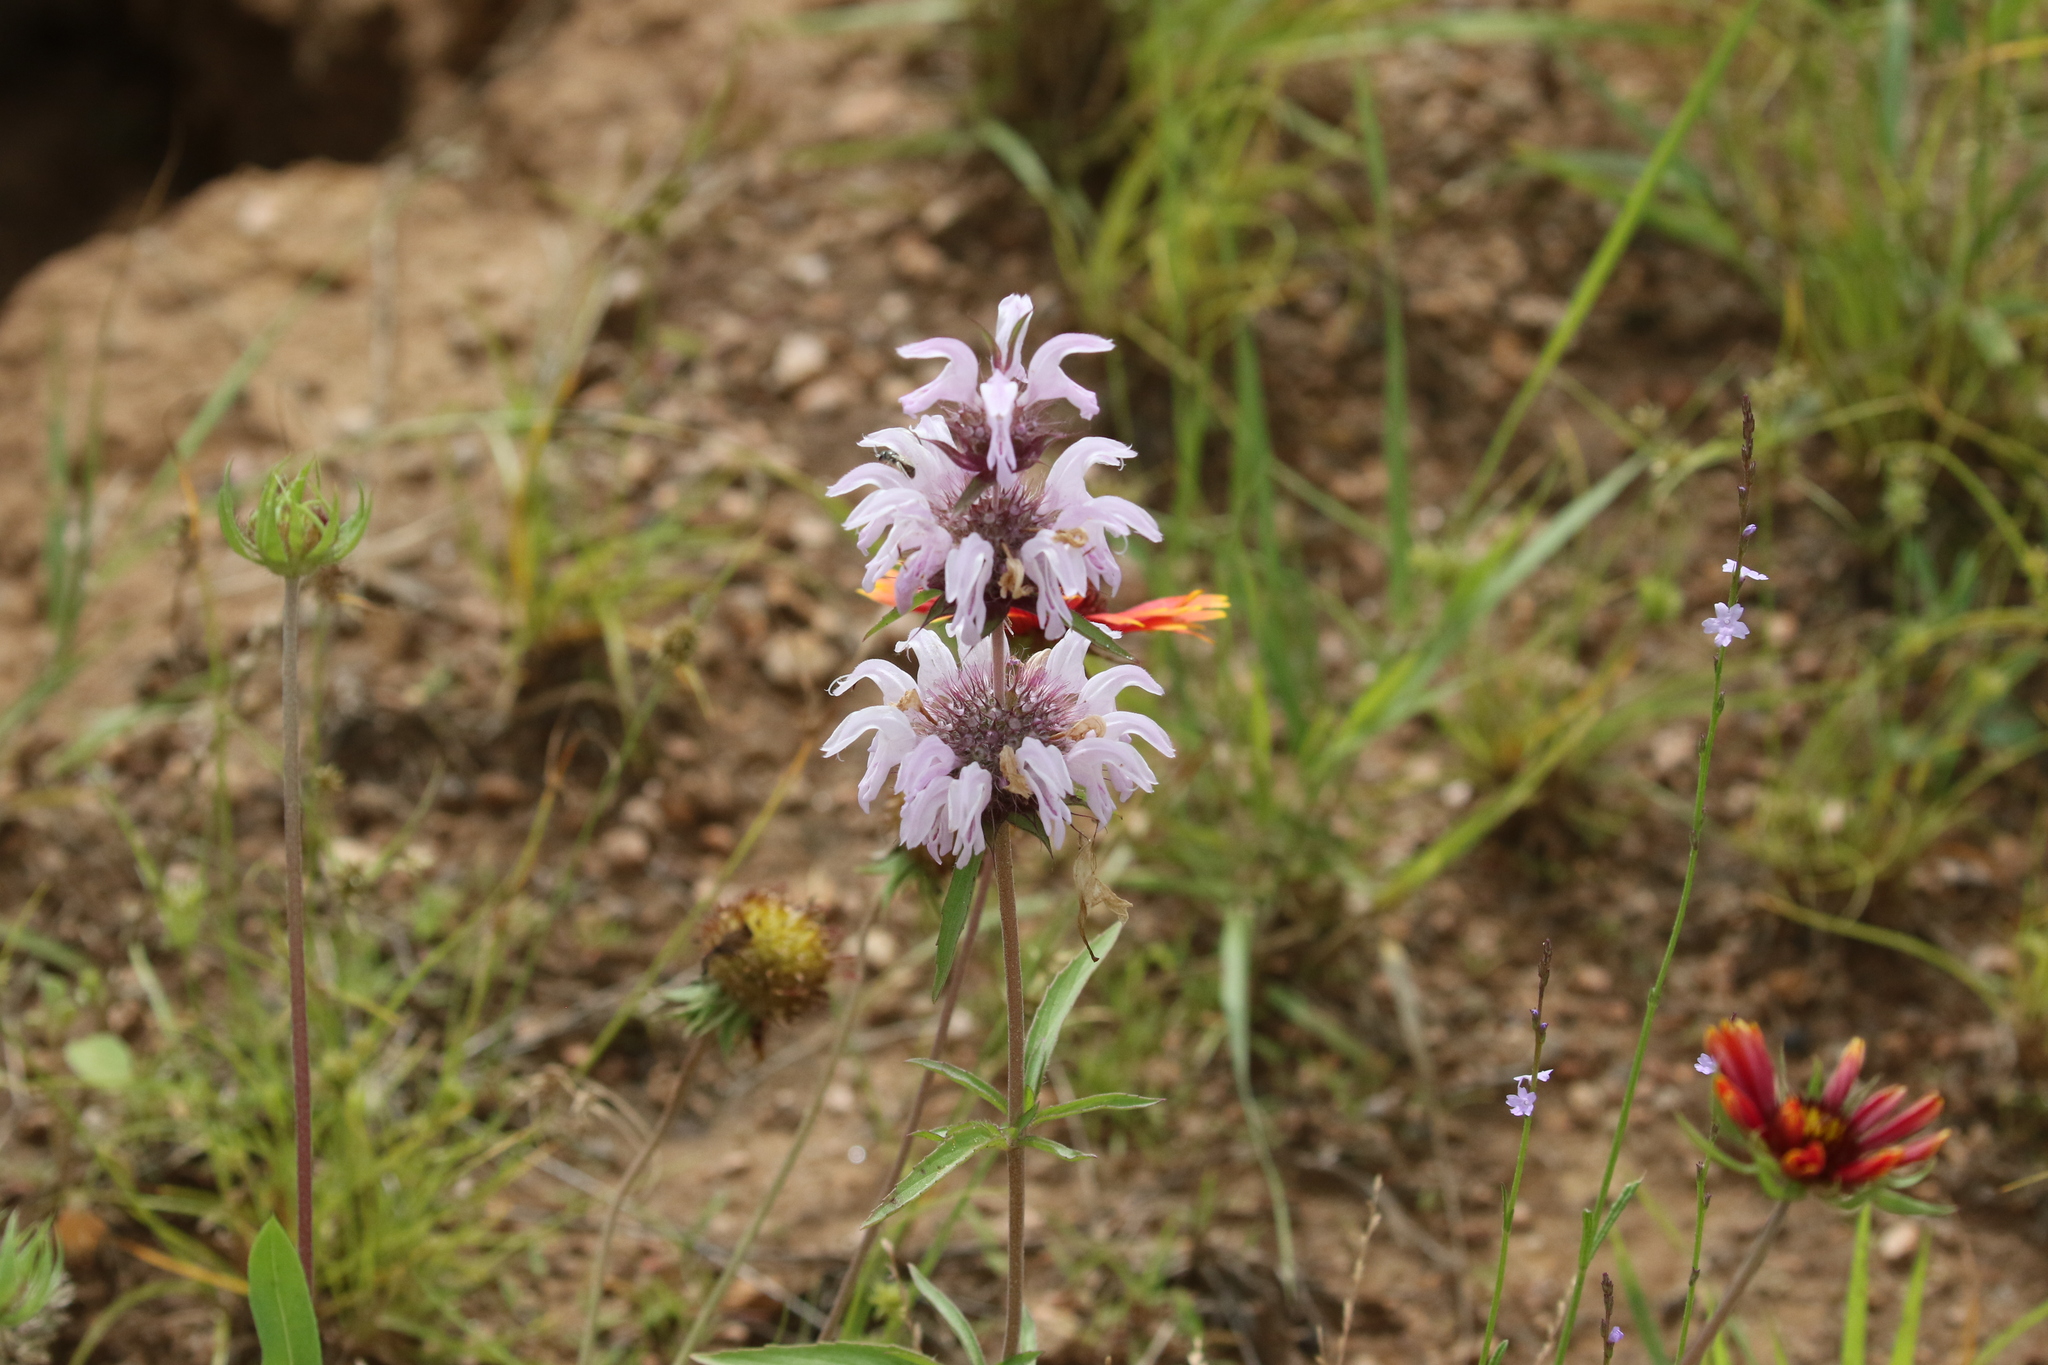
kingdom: Plantae
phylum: Tracheophyta
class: Magnoliopsida
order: Lamiales
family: Lamiaceae
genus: Monarda
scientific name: Monarda clinopodioides
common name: Basil beebalm
